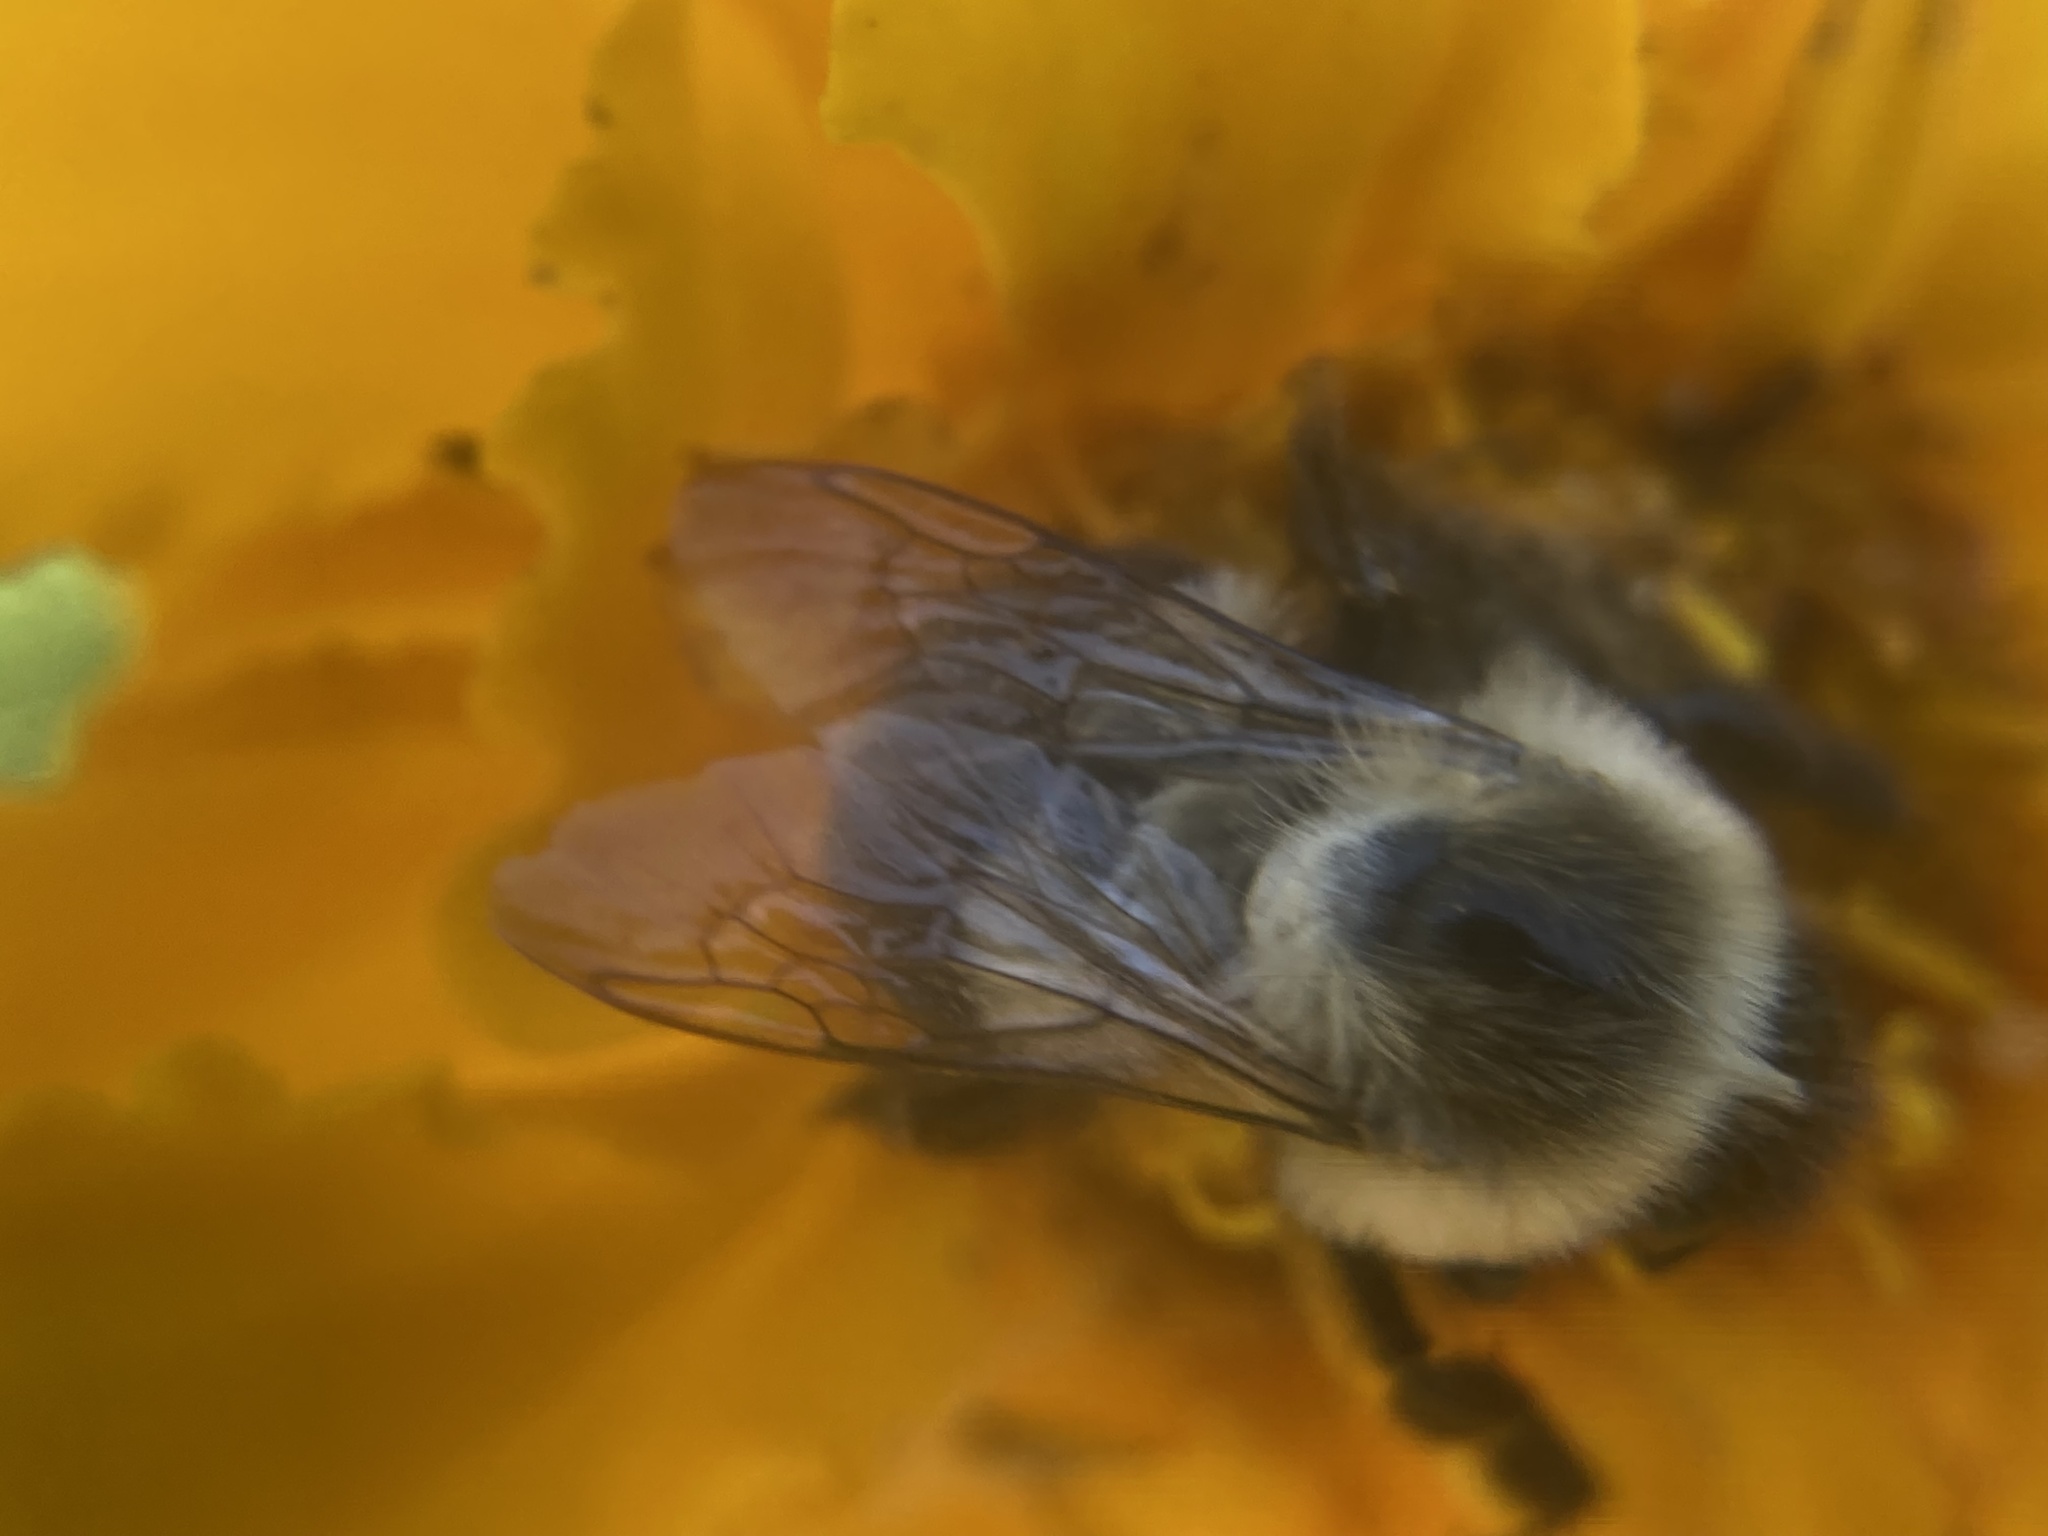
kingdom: Animalia
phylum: Arthropoda
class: Insecta
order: Hymenoptera
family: Apidae
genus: Bombus
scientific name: Bombus impatiens
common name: Common eastern bumble bee
